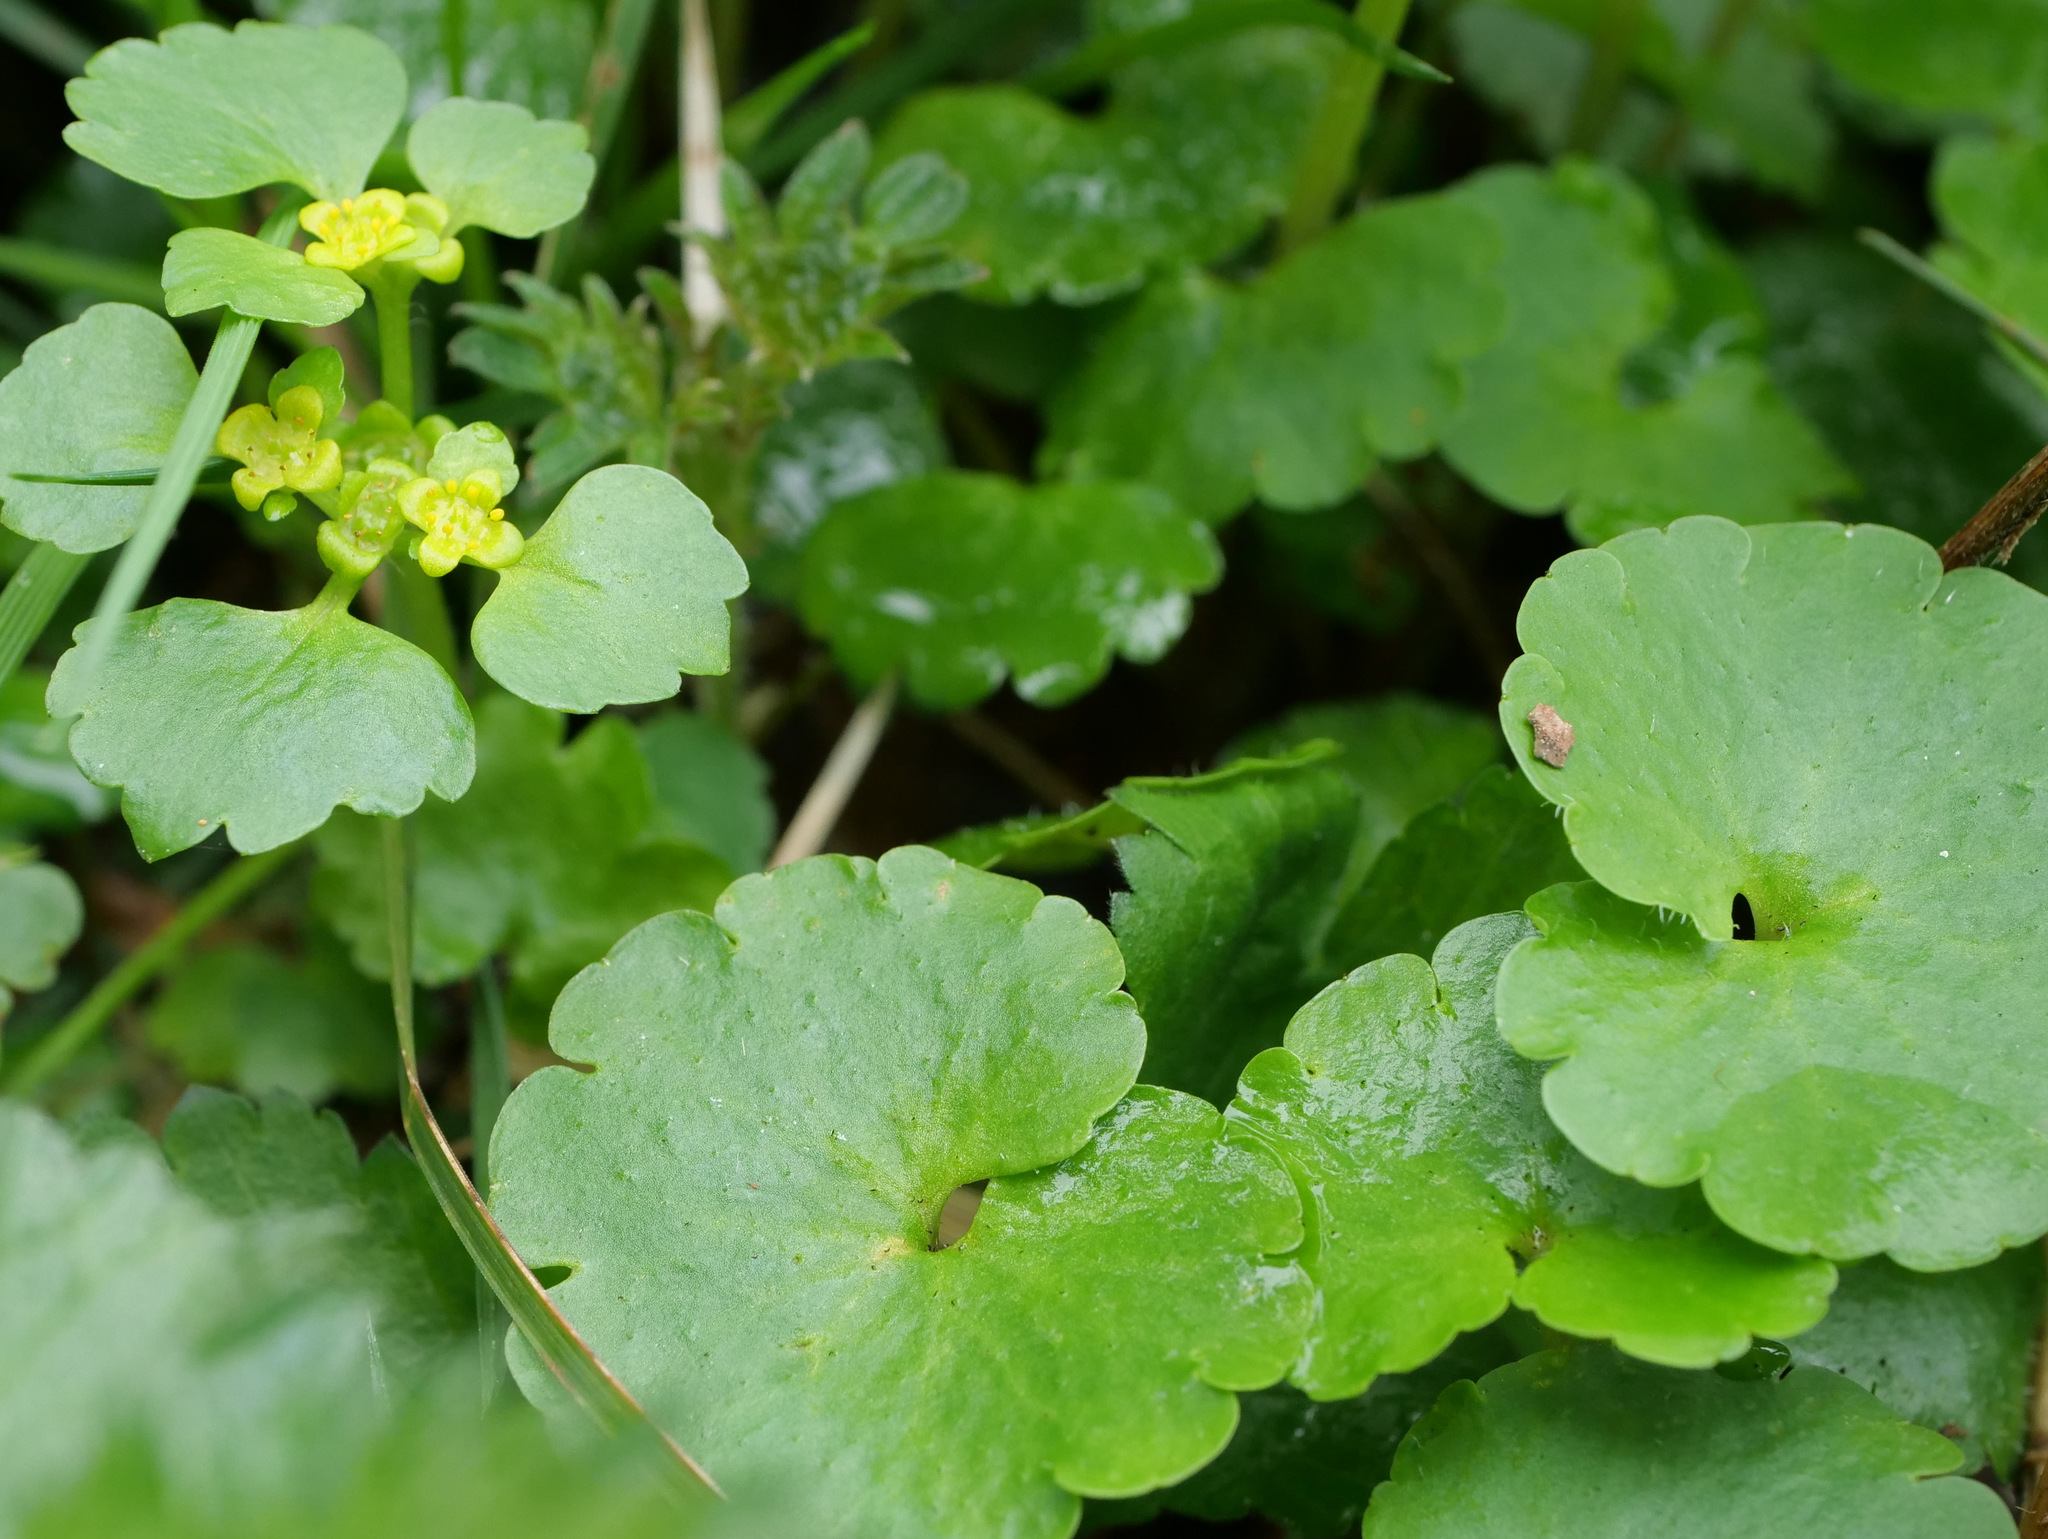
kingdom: Plantae
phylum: Tracheophyta
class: Magnoliopsida
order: Saxifragales
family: Saxifragaceae
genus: Chrysosplenium
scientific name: Chrysosplenium alternifolium
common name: Alternate-leaved golden-saxifrage
